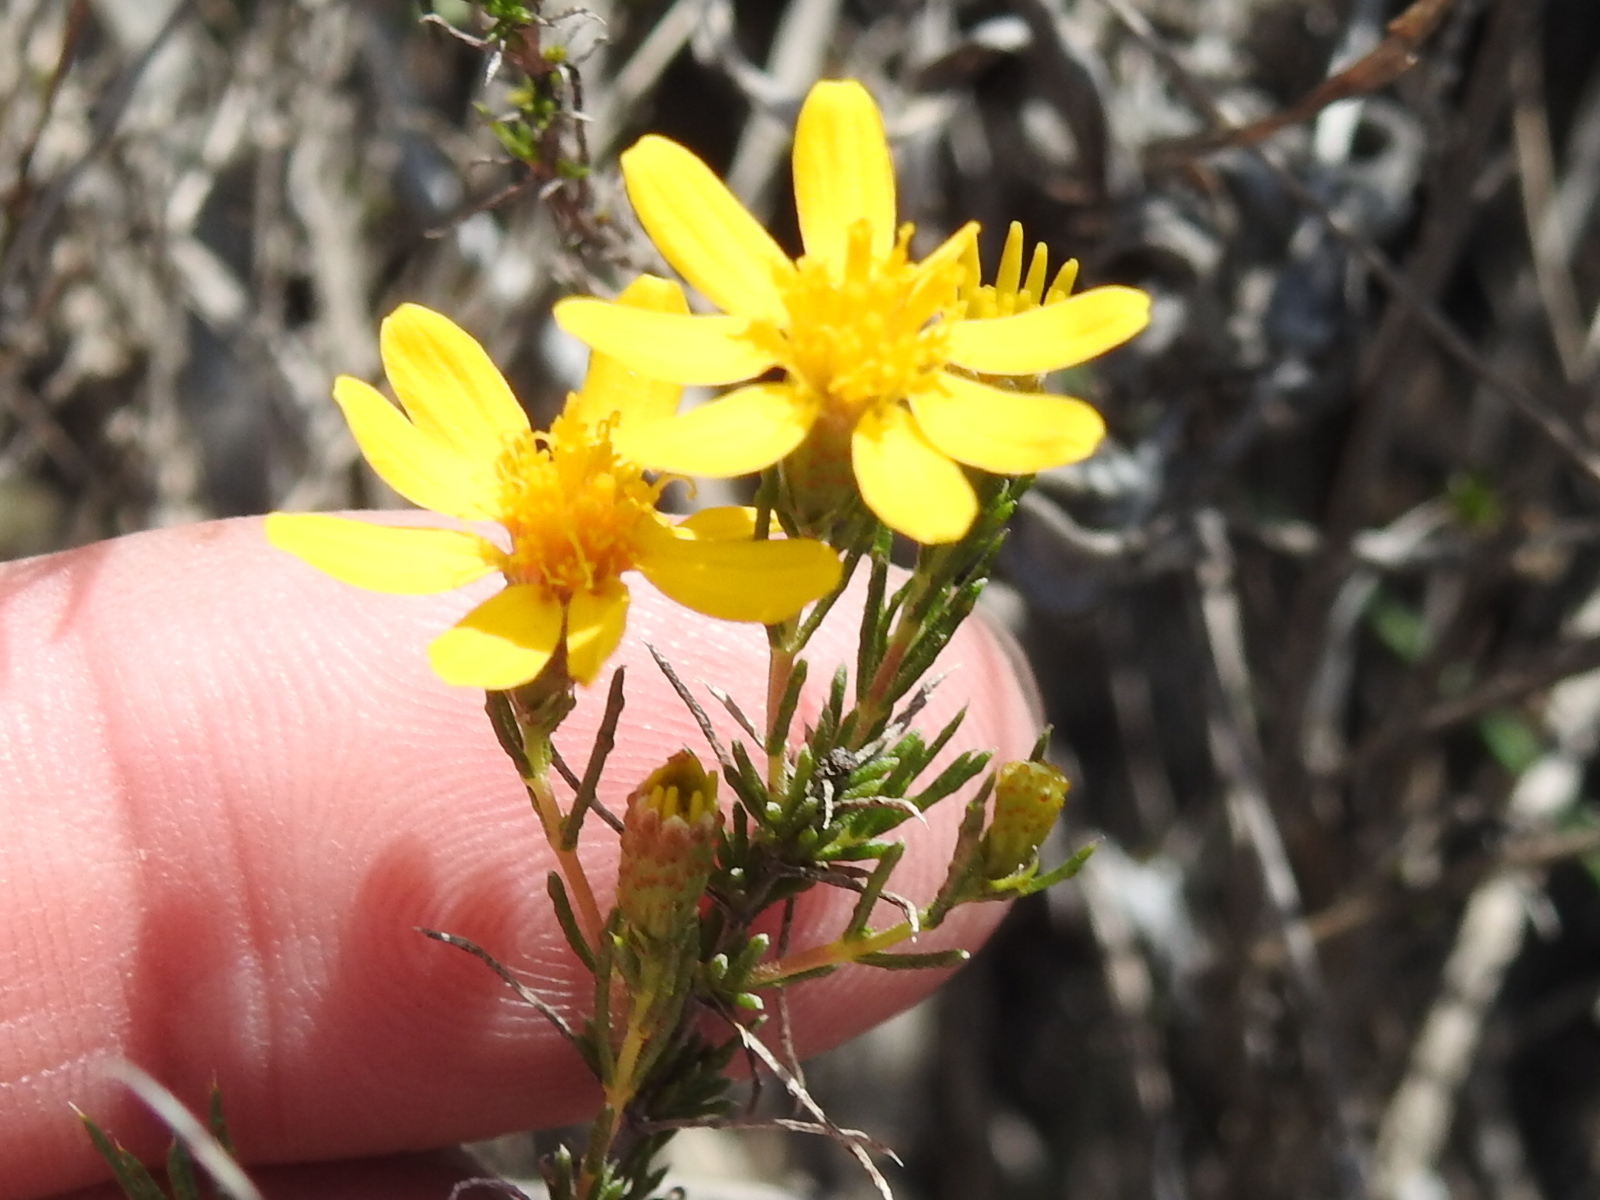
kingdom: Plantae
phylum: Tracheophyta
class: Magnoliopsida
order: Asterales
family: Asteraceae
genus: Thymophylla
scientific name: Thymophylla acerosa
